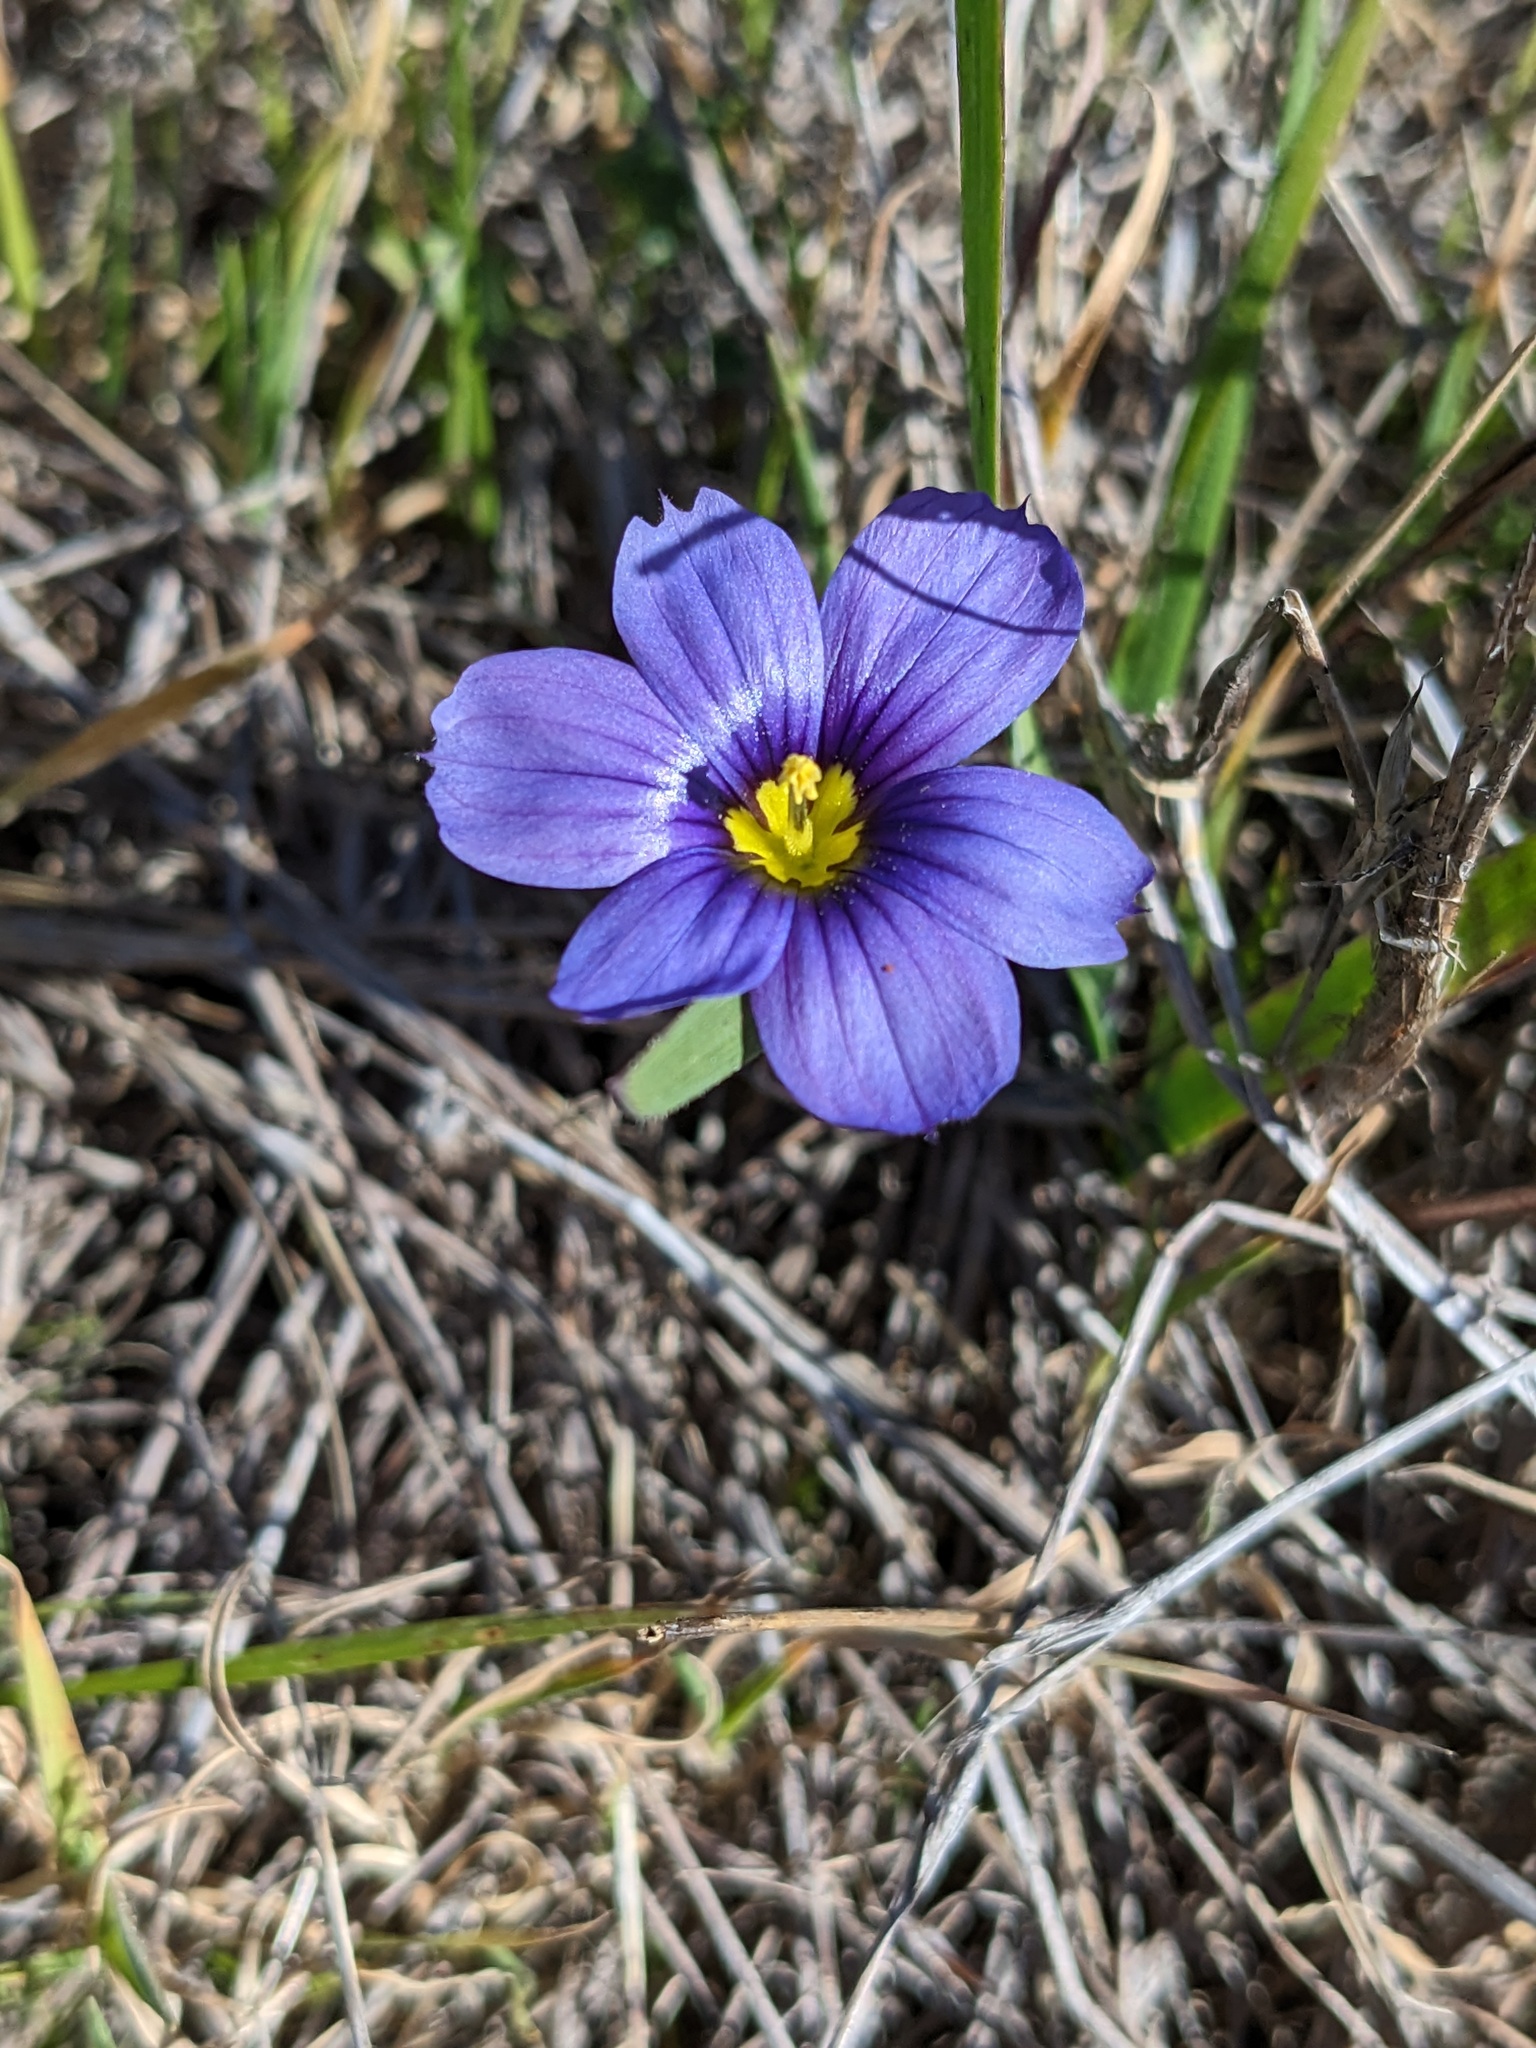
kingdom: Plantae
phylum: Tracheophyta
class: Liliopsida
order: Asparagales
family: Iridaceae
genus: Sisyrinchium
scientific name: Sisyrinchium bellum
